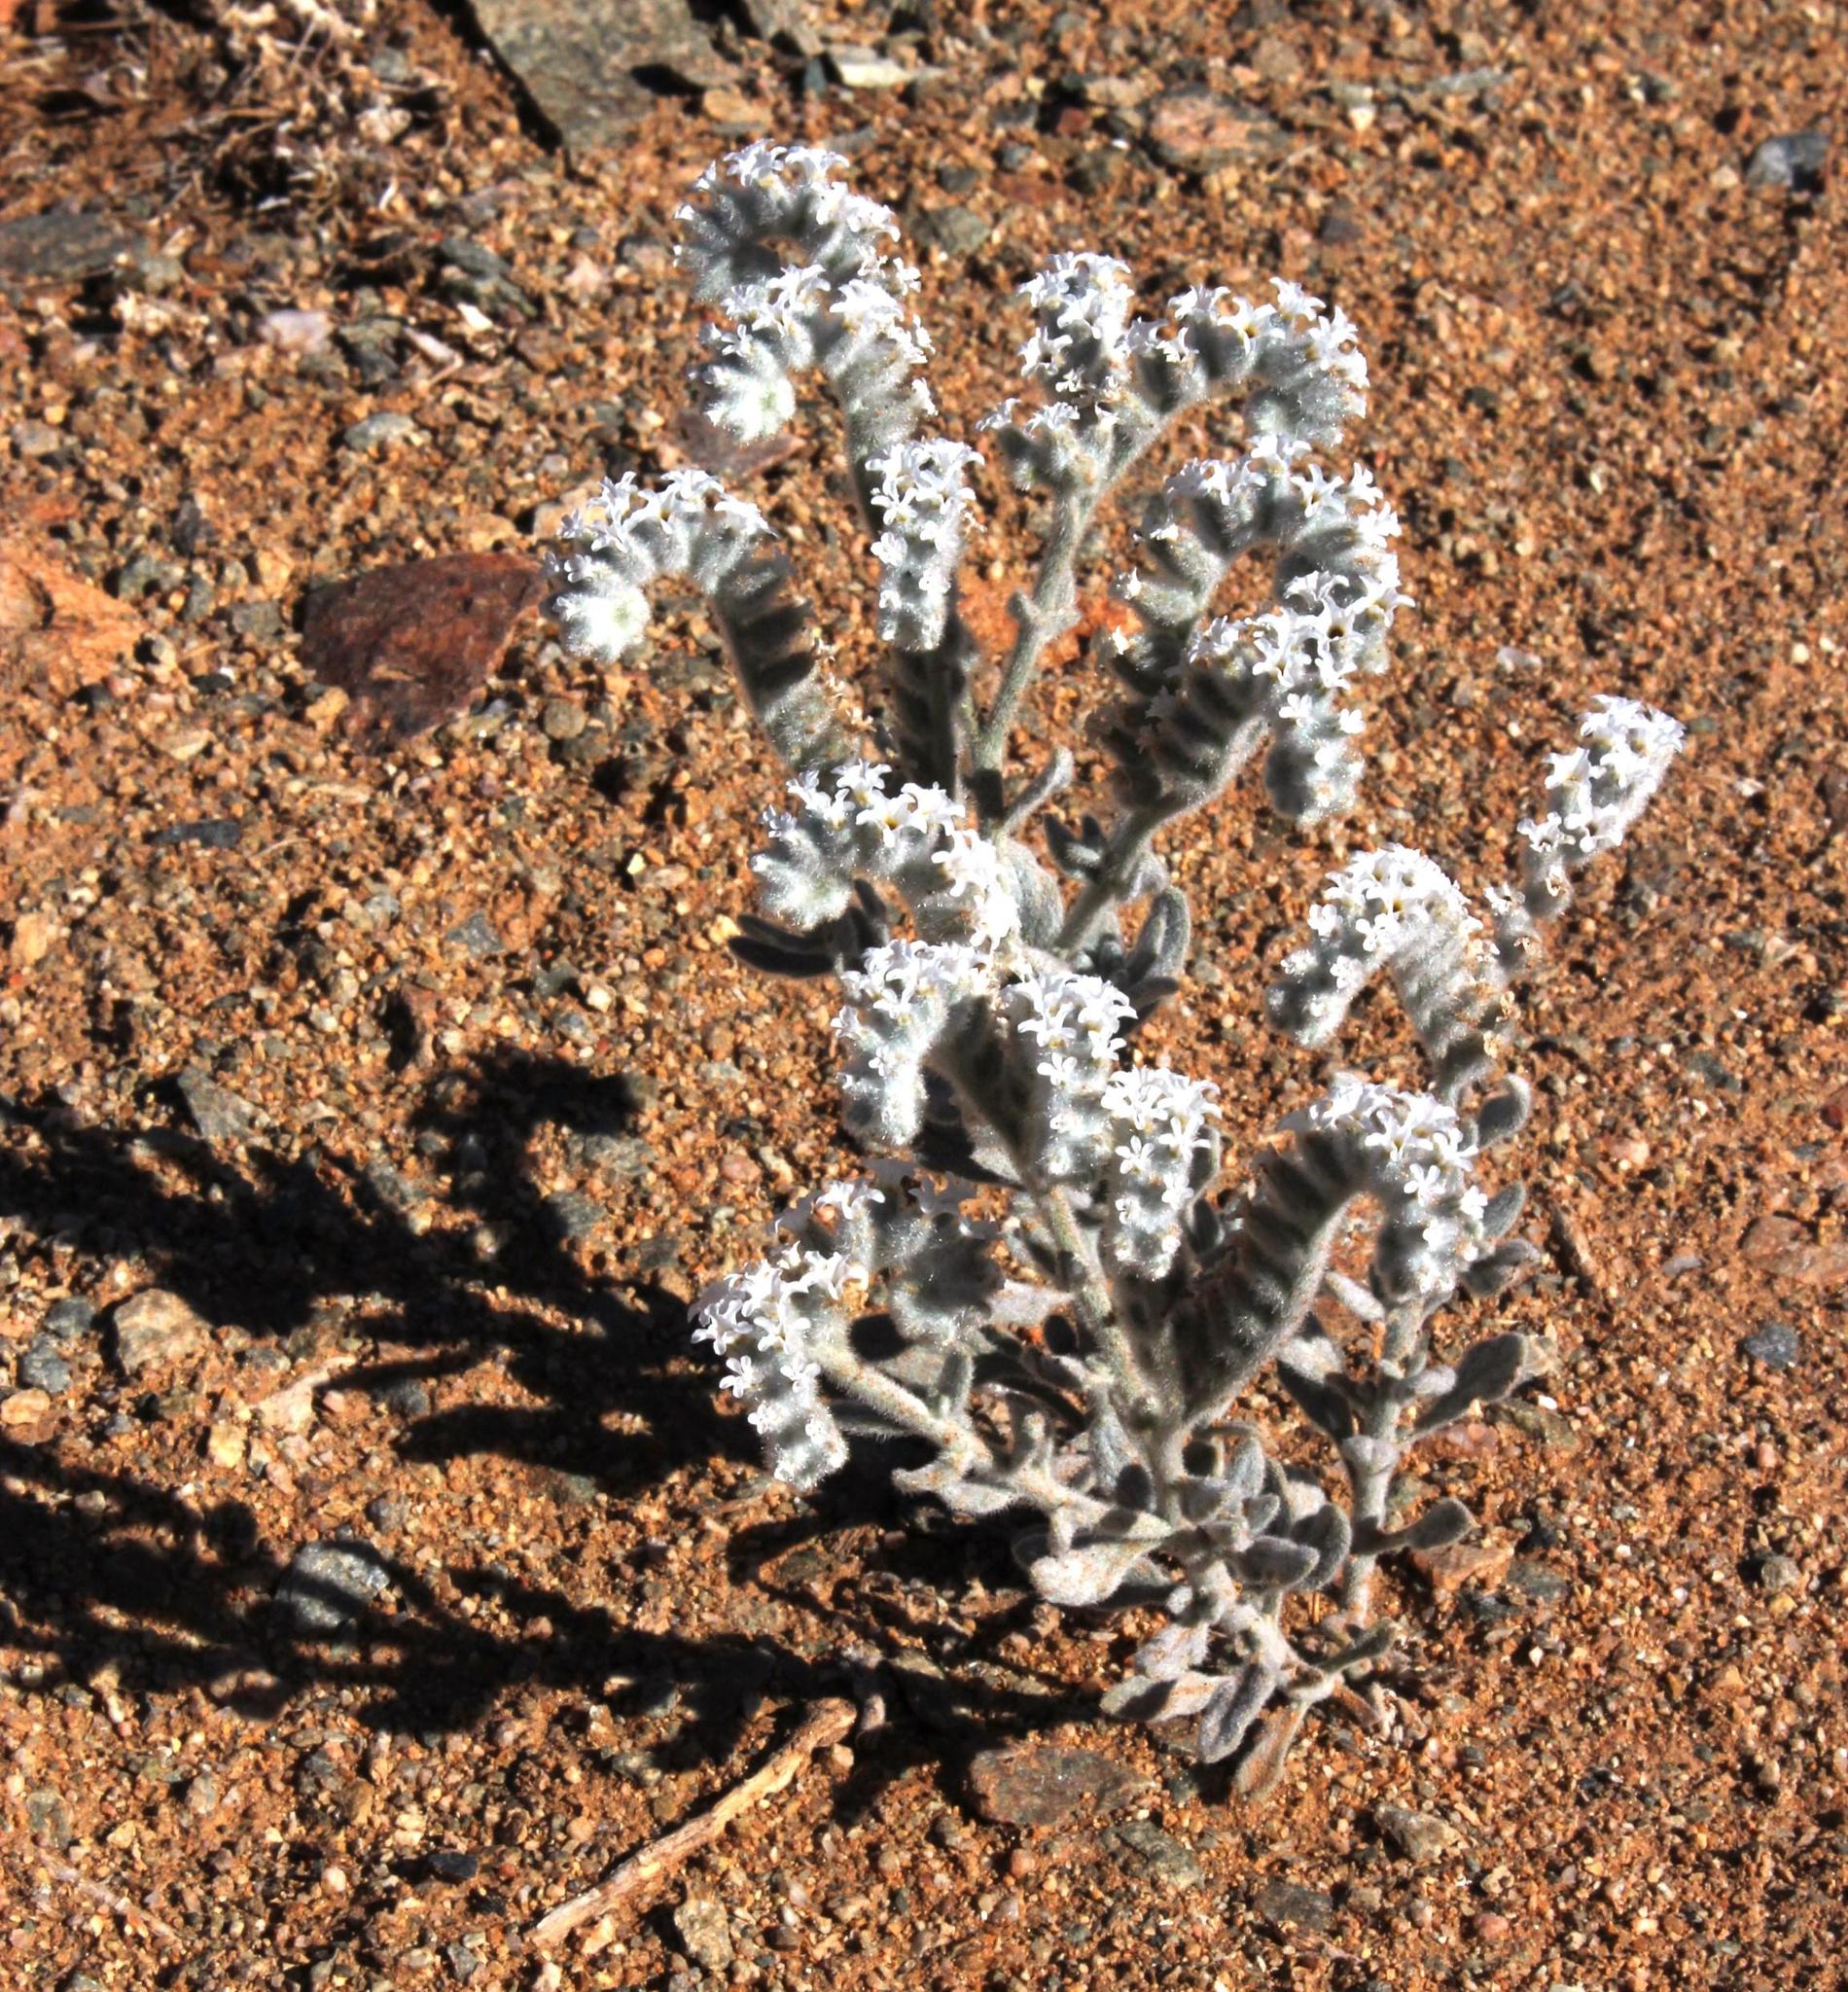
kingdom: Plantae
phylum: Tracheophyta
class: Magnoliopsida
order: Boraginales
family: Heliotropiaceae
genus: Heliotropium
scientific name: Heliotropium tubulosum
